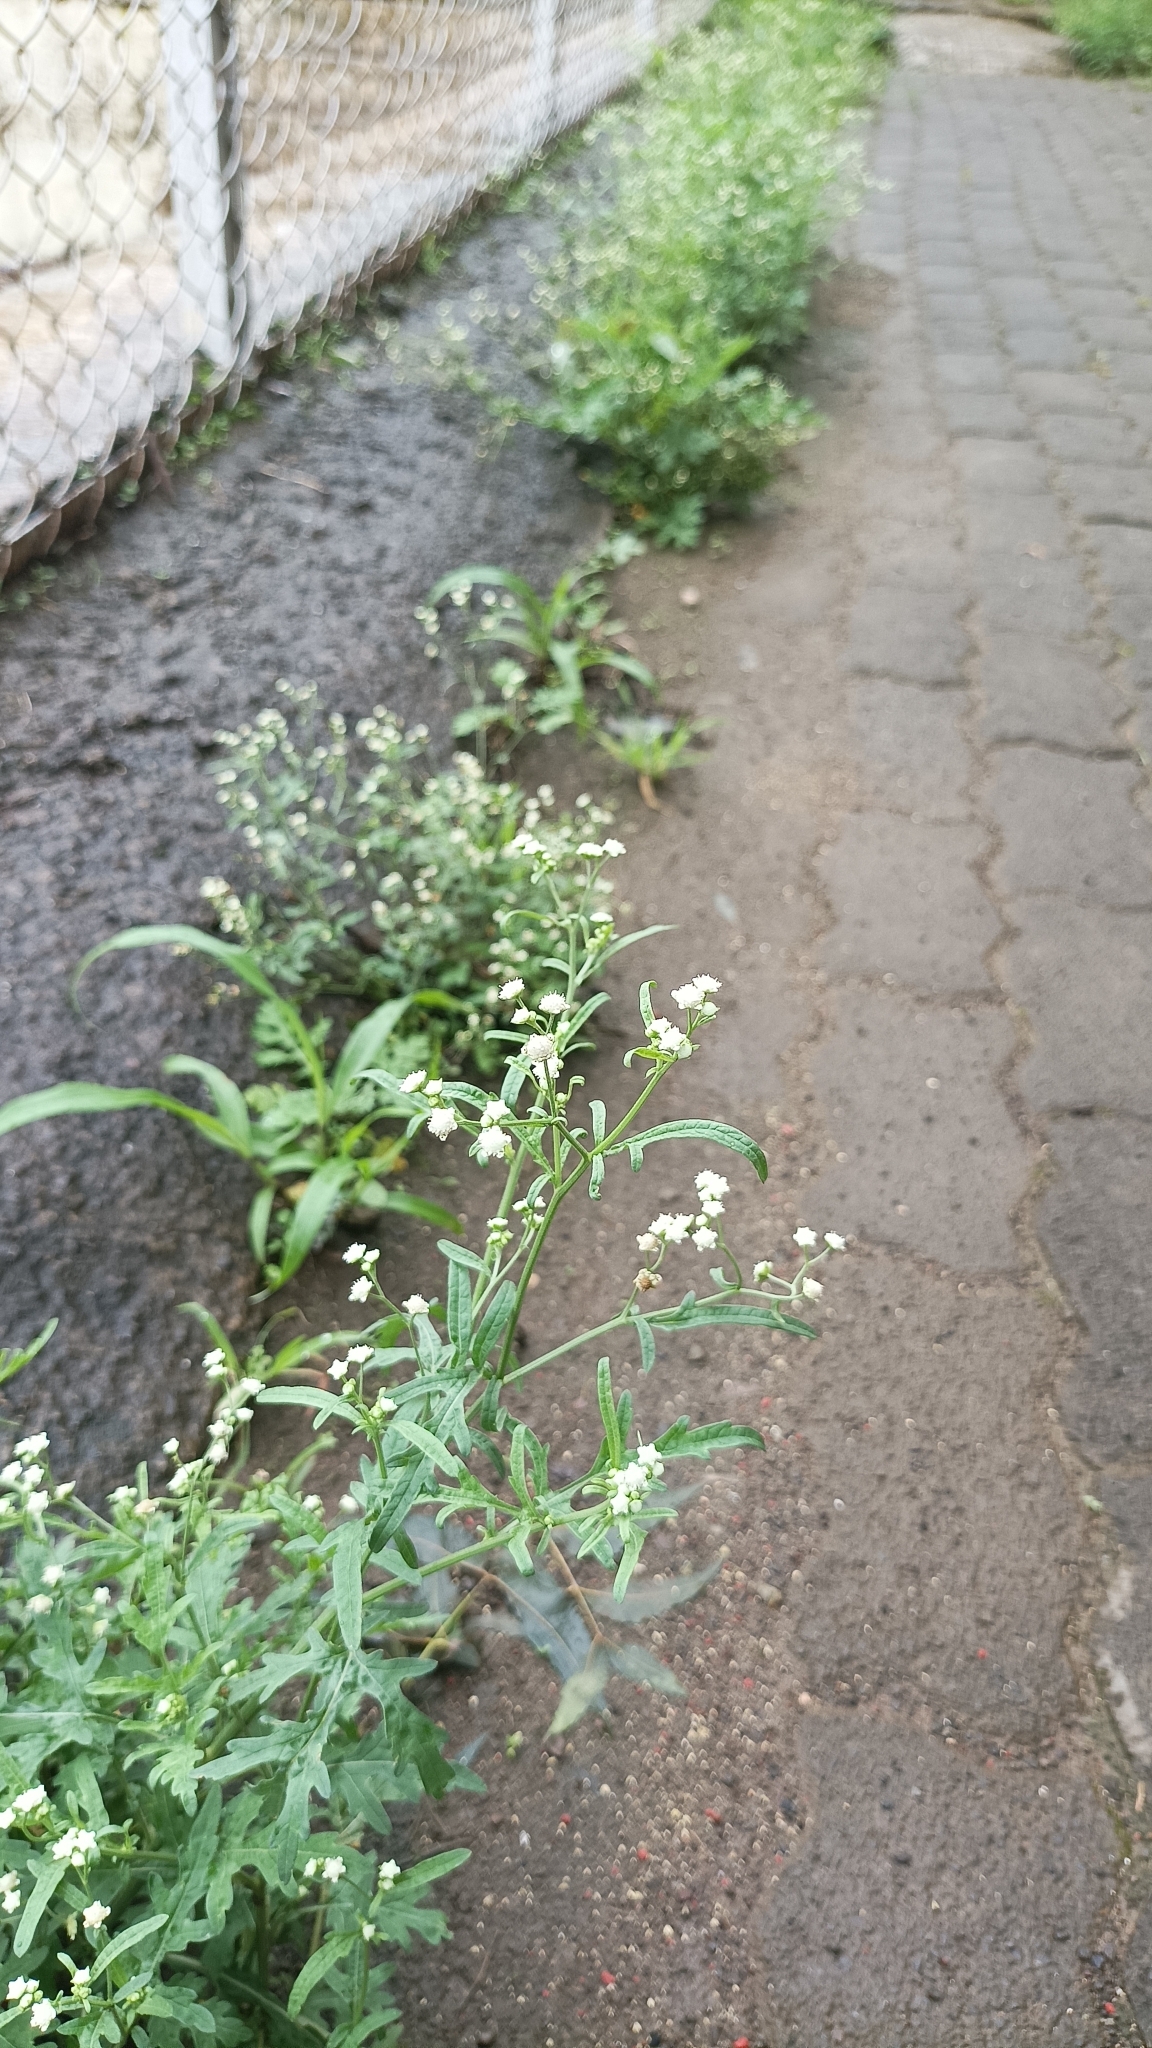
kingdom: Plantae
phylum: Tracheophyta
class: Magnoliopsida
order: Asterales
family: Asteraceae
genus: Parthenium
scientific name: Parthenium hysterophorus
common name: Santa maria feverfew
